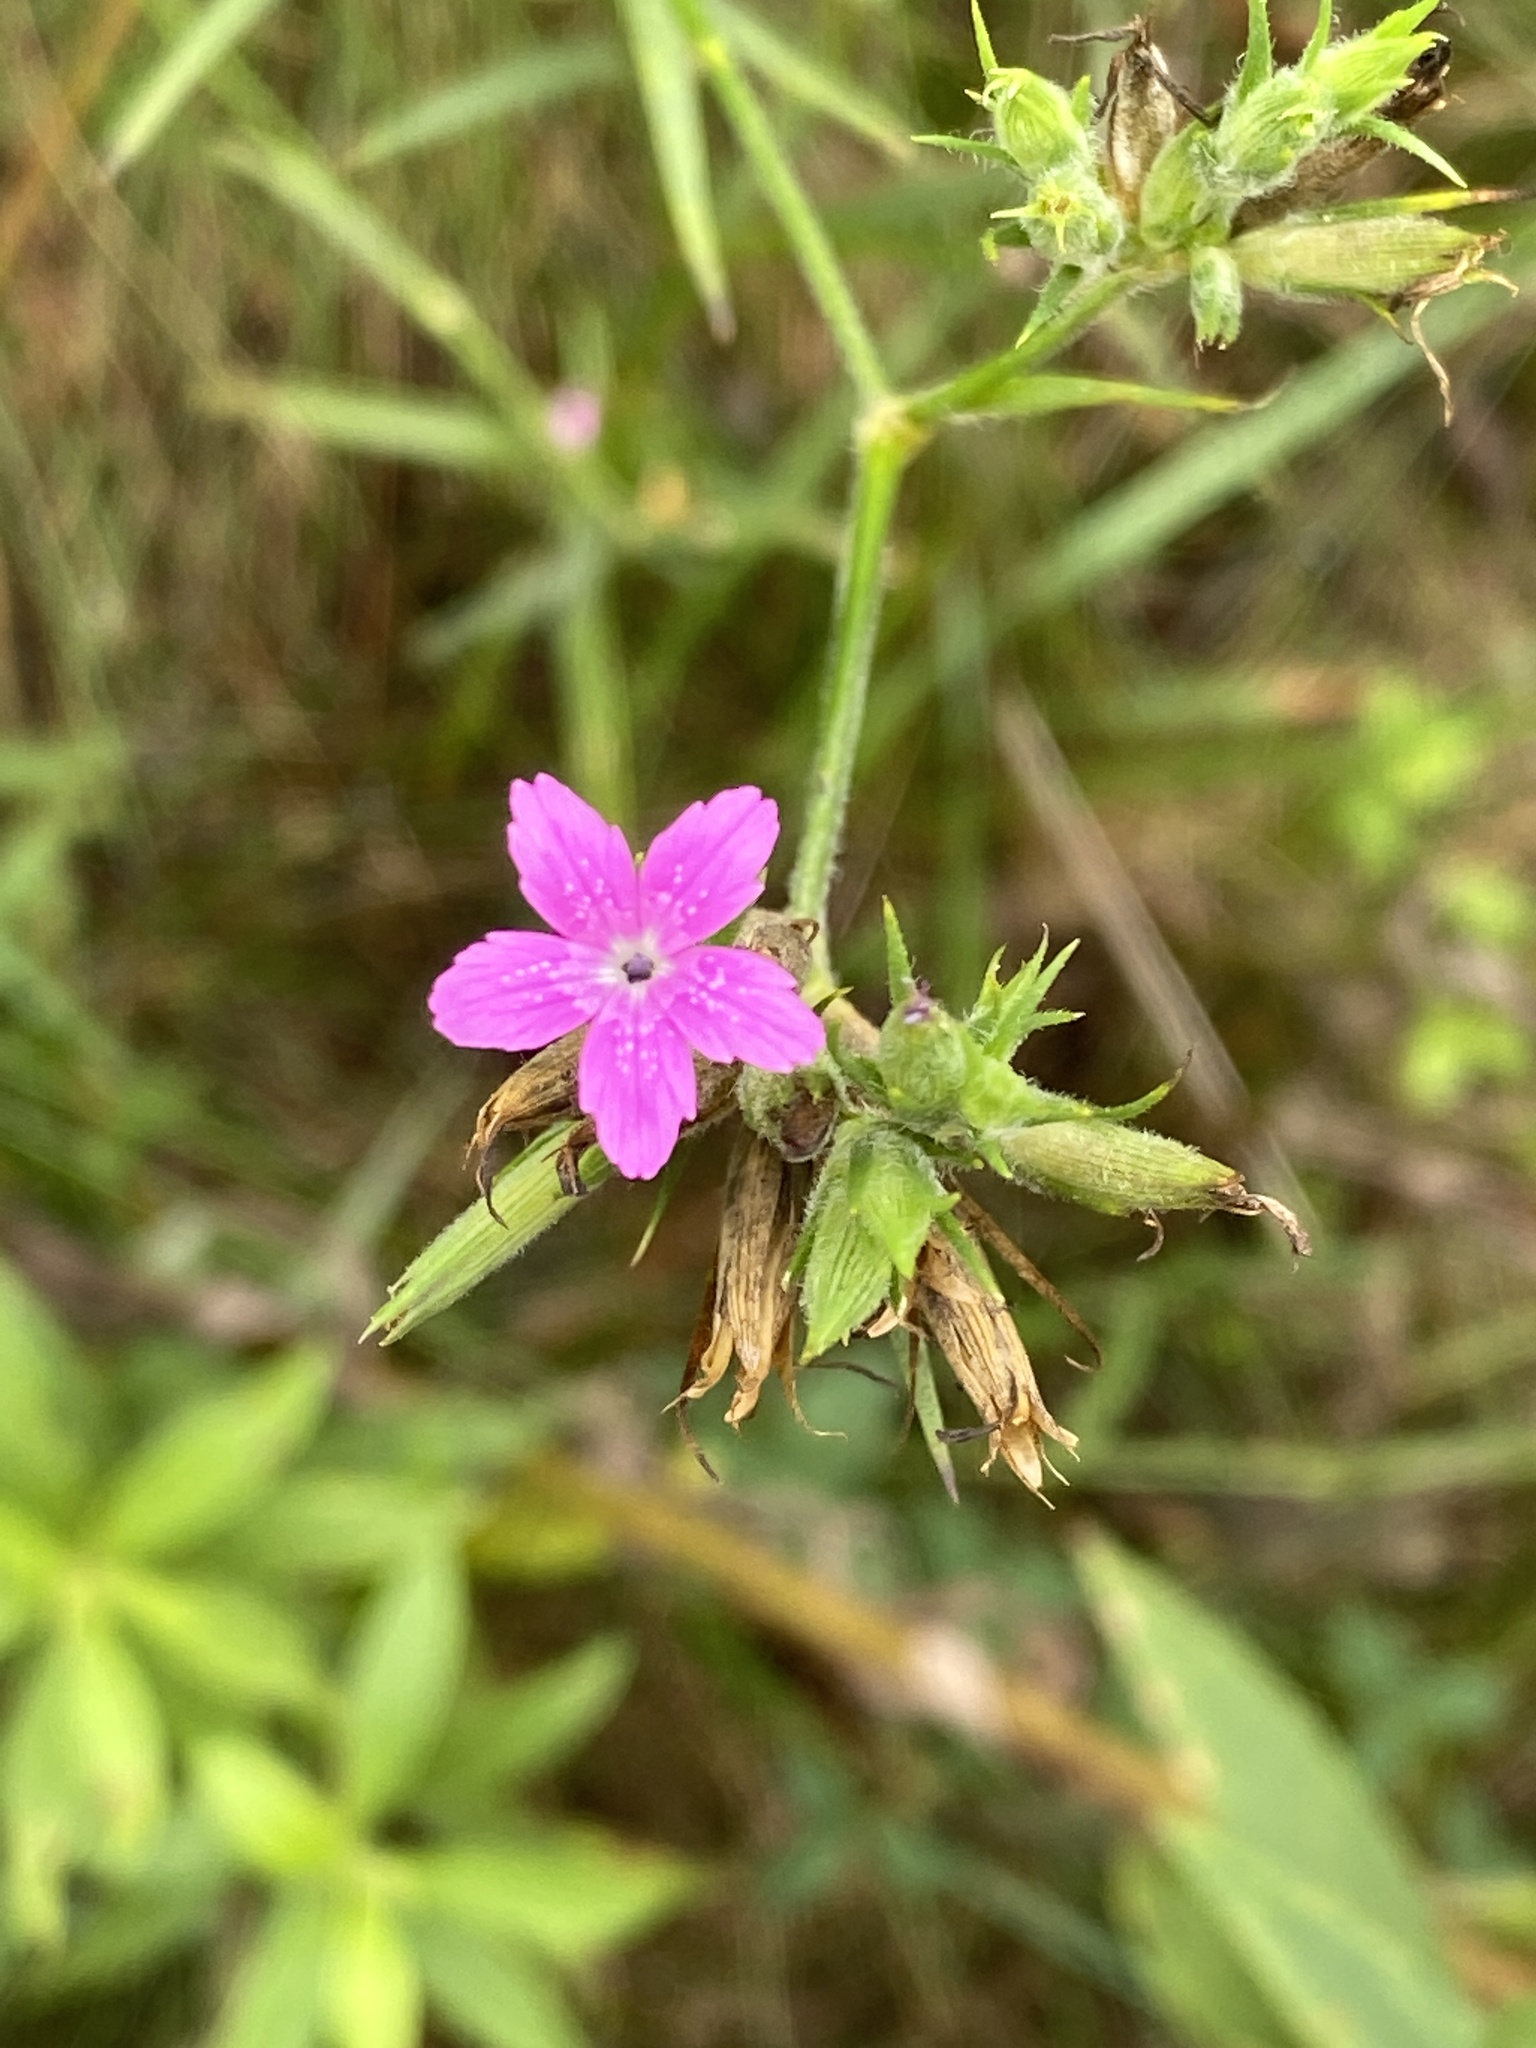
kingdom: Plantae
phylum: Tracheophyta
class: Magnoliopsida
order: Caryophyllales
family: Caryophyllaceae
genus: Dianthus
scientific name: Dianthus armeria
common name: Deptford pink
